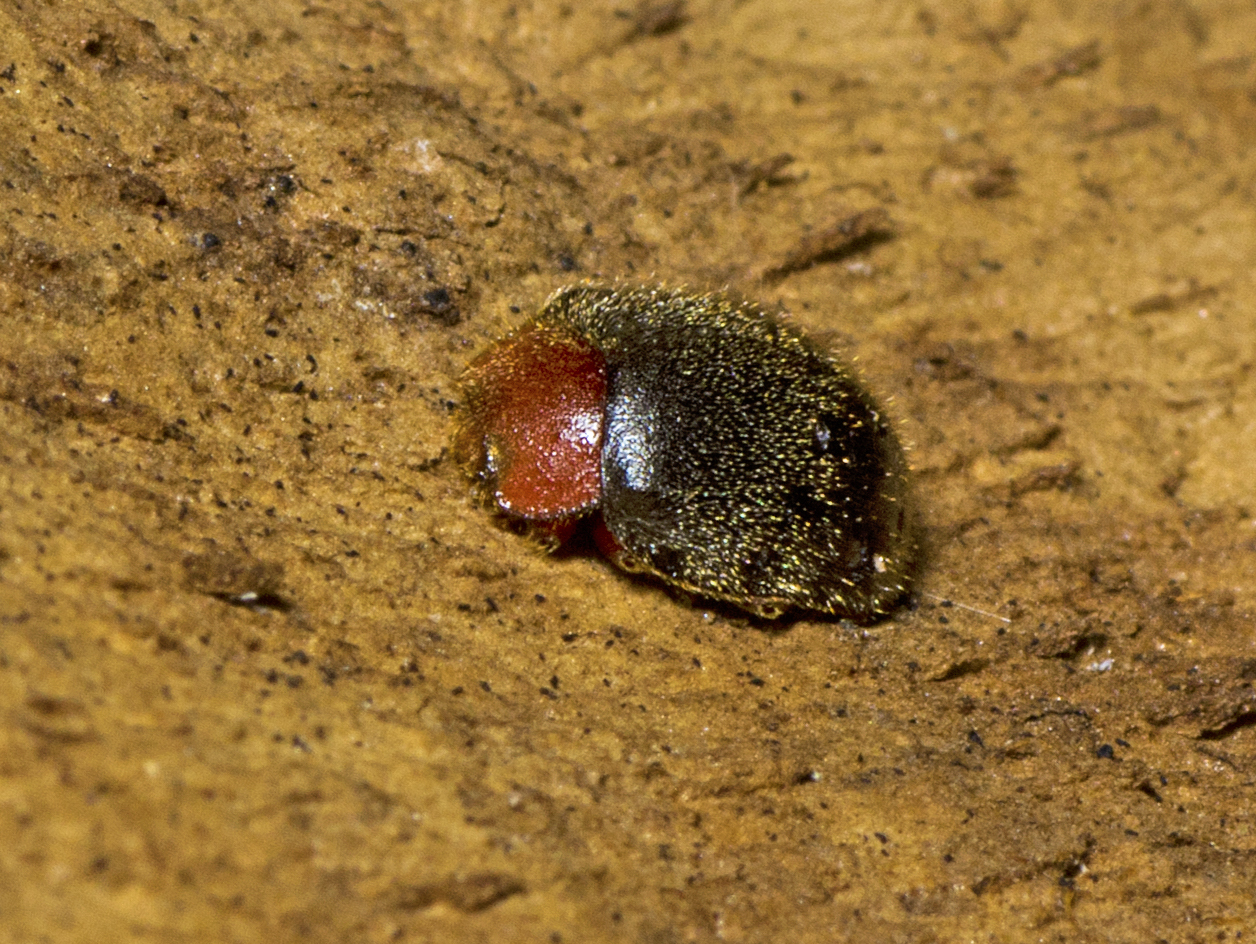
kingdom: Animalia
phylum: Arthropoda
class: Insecta
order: Coleoptera
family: Coccinellidae
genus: Cryptolaemus
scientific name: Cryptolaemus montrouzieri
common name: Mealybug destroyer
